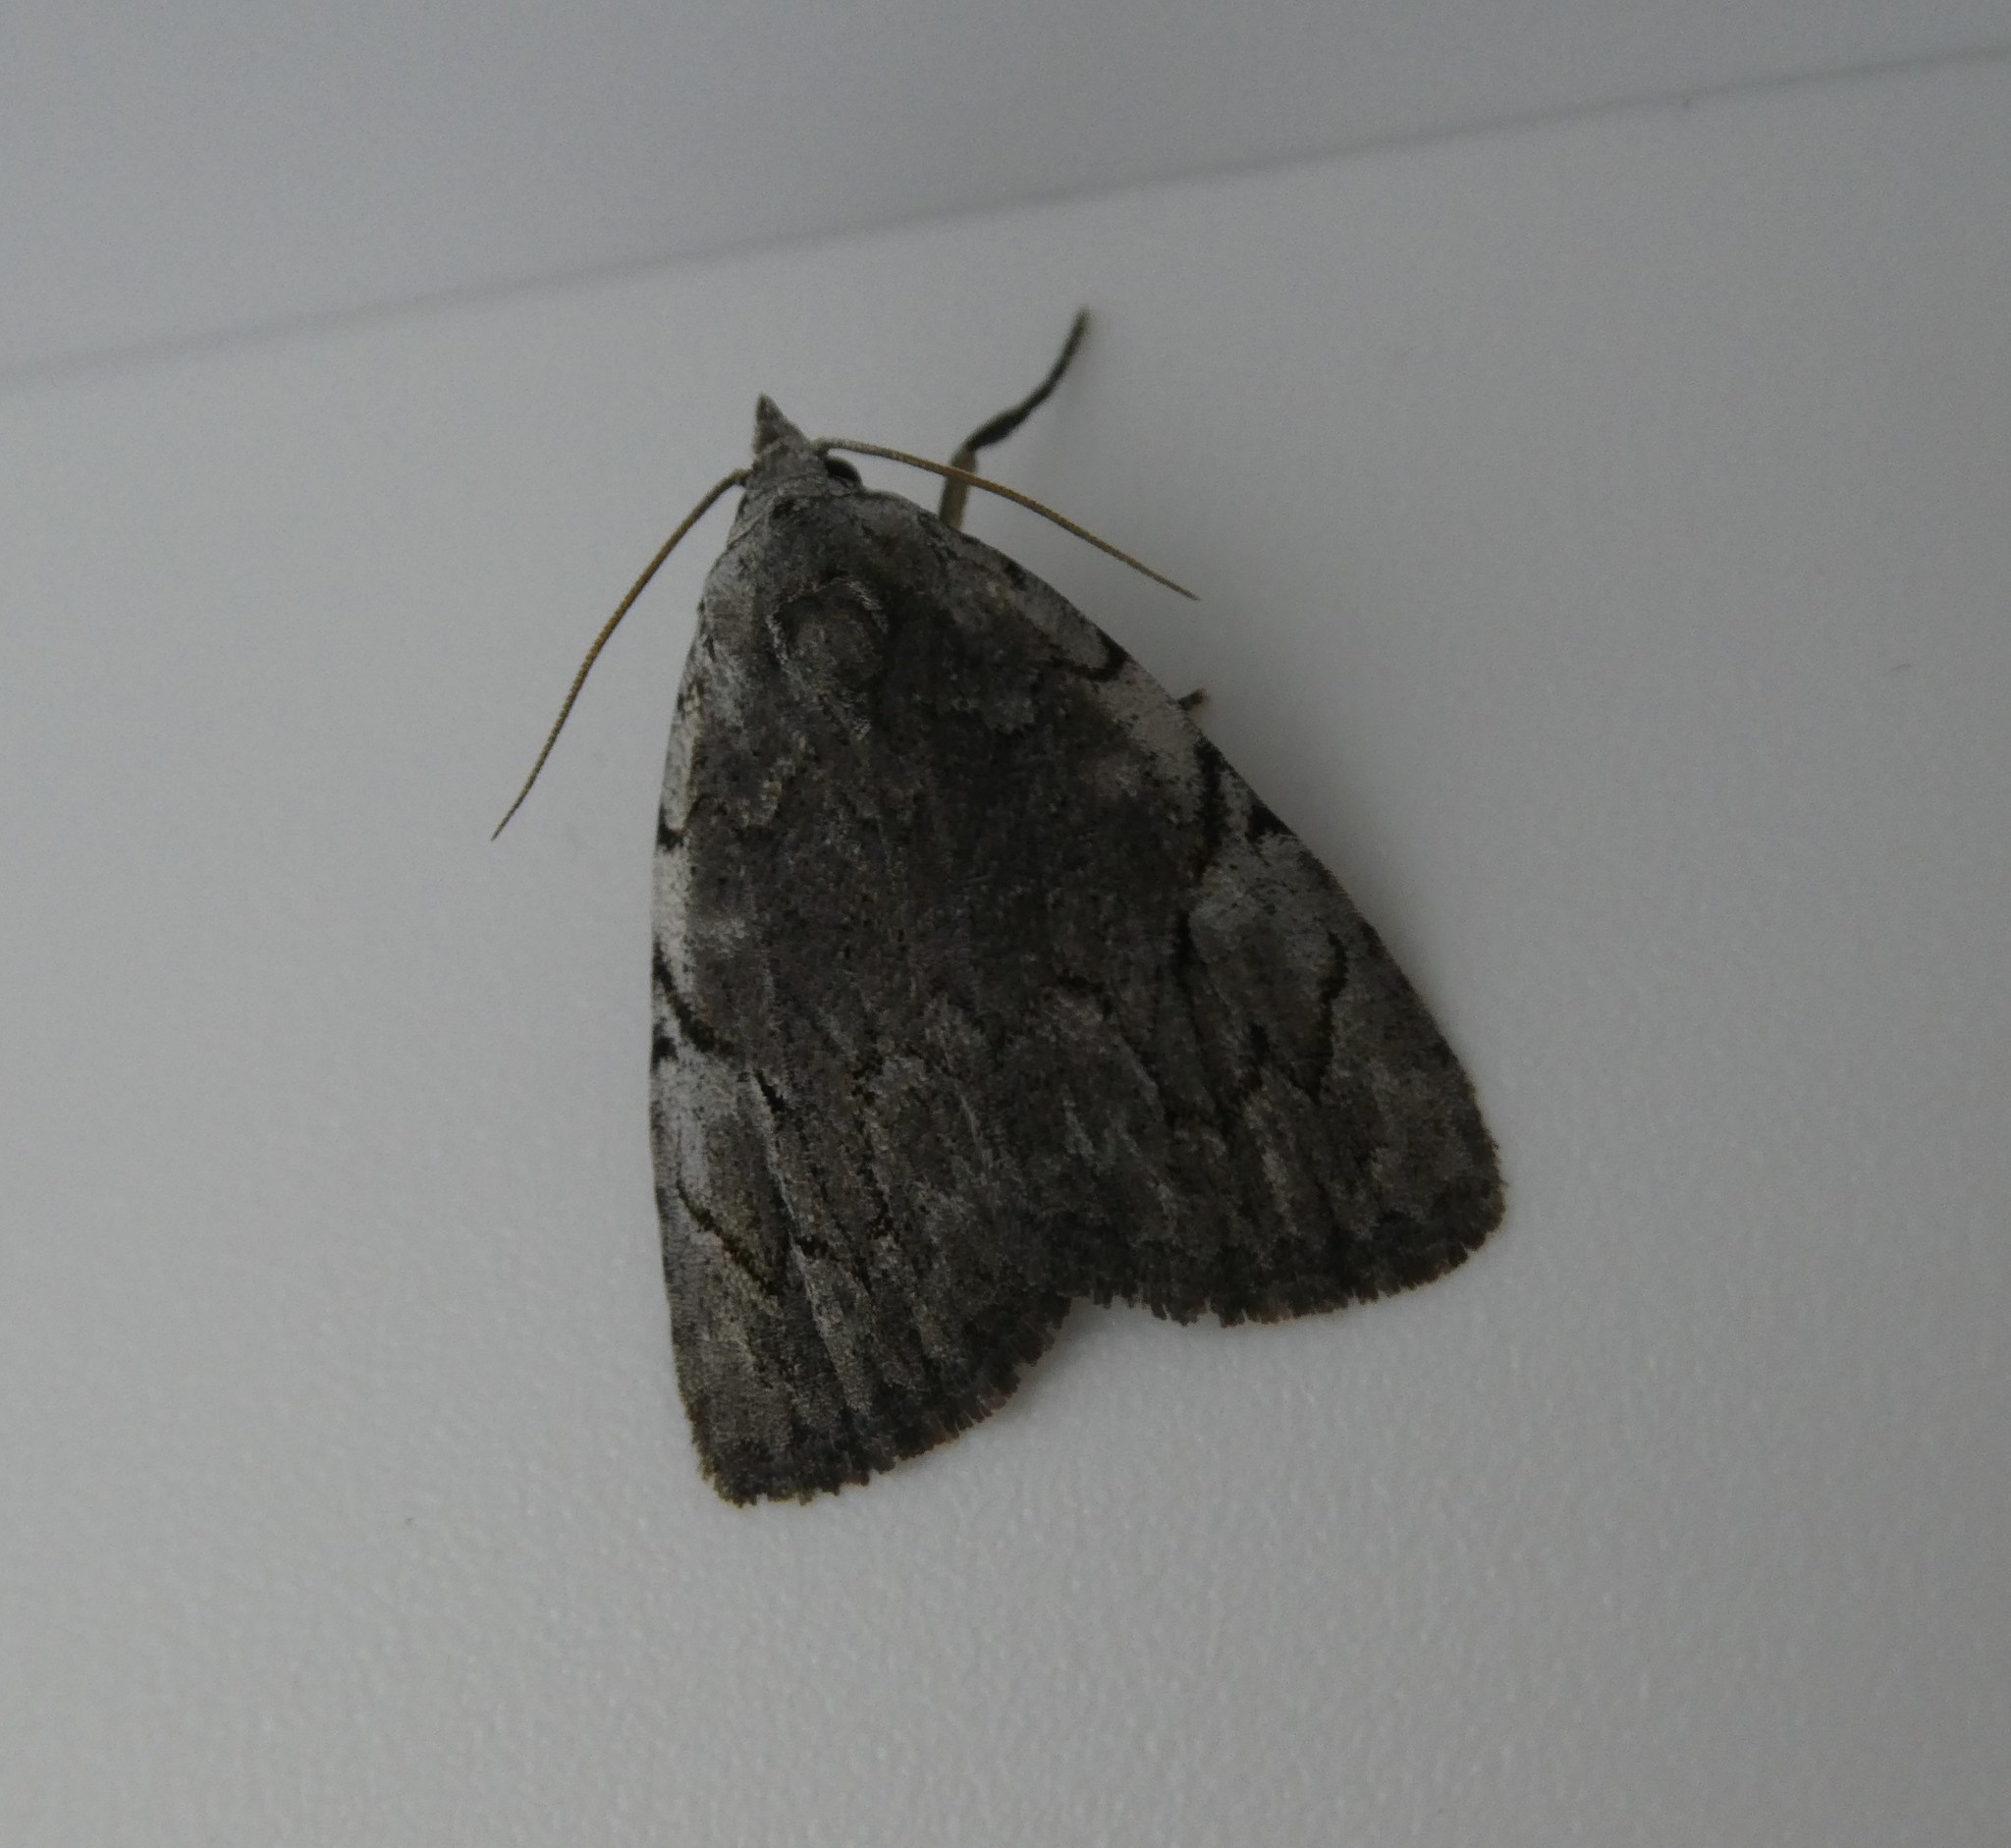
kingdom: Animalia
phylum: Arthropoda
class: Insecta
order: Lepidoptera
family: Noctuidae
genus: Balsa
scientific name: Balsa malana
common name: Many-dotted appleworm moth
